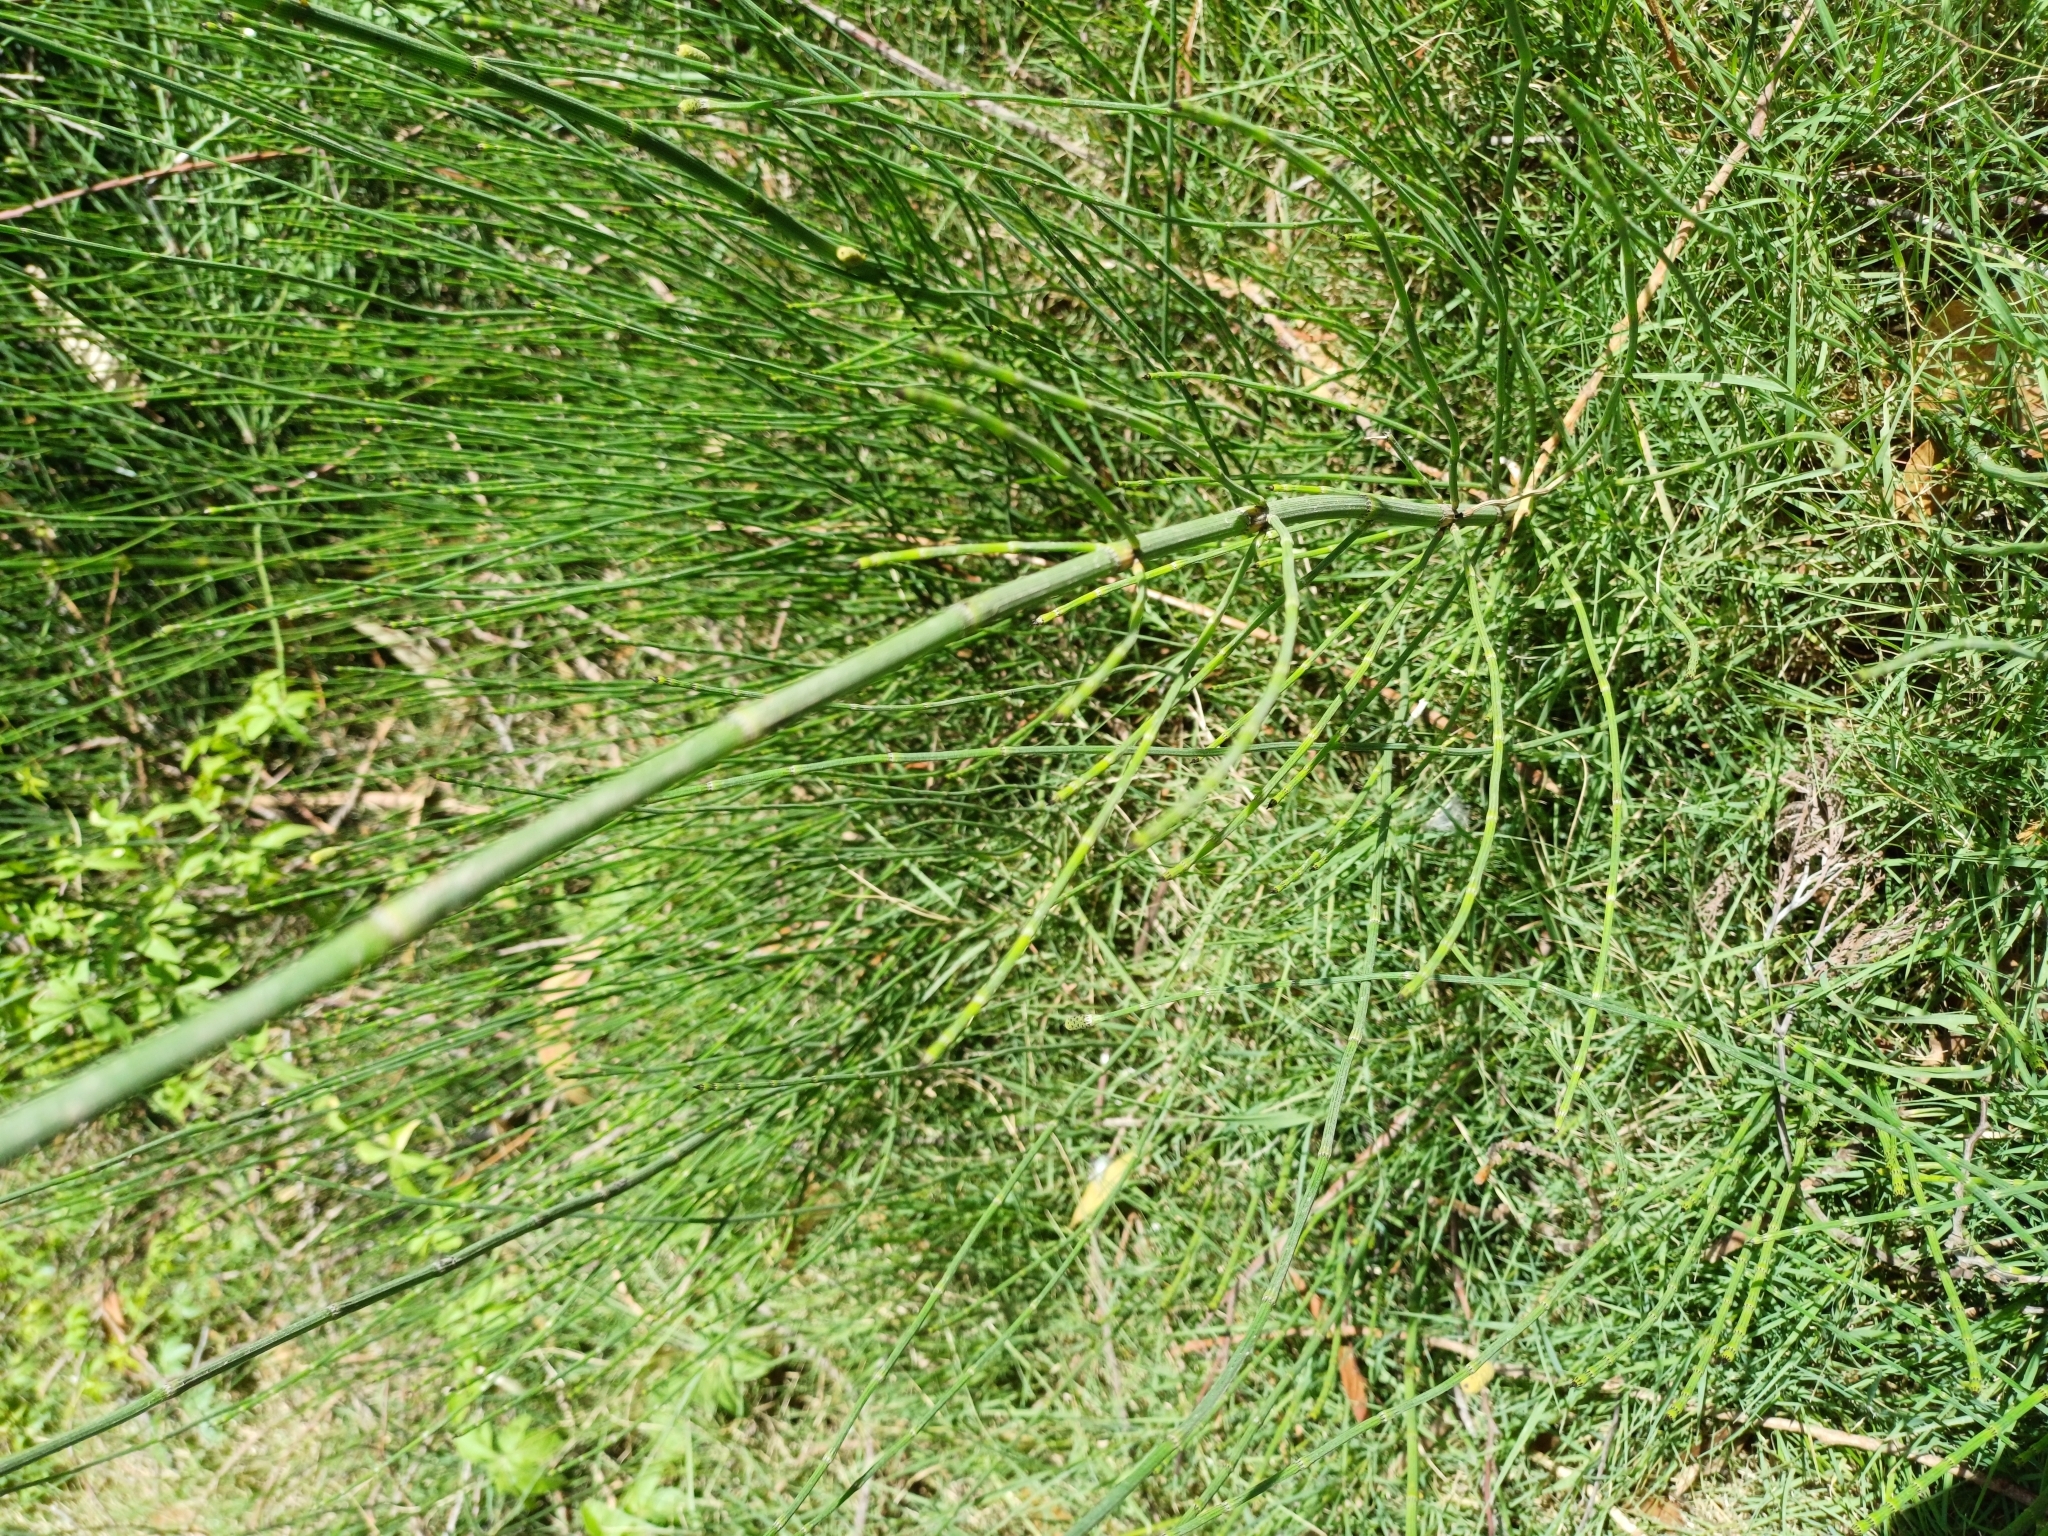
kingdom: Plantae
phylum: Tracheophyta
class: Polypodiopsida
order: Equisetales
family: Equisetaceae
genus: Equisetum
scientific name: Equisetum giganteum
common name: Giant horsetail
